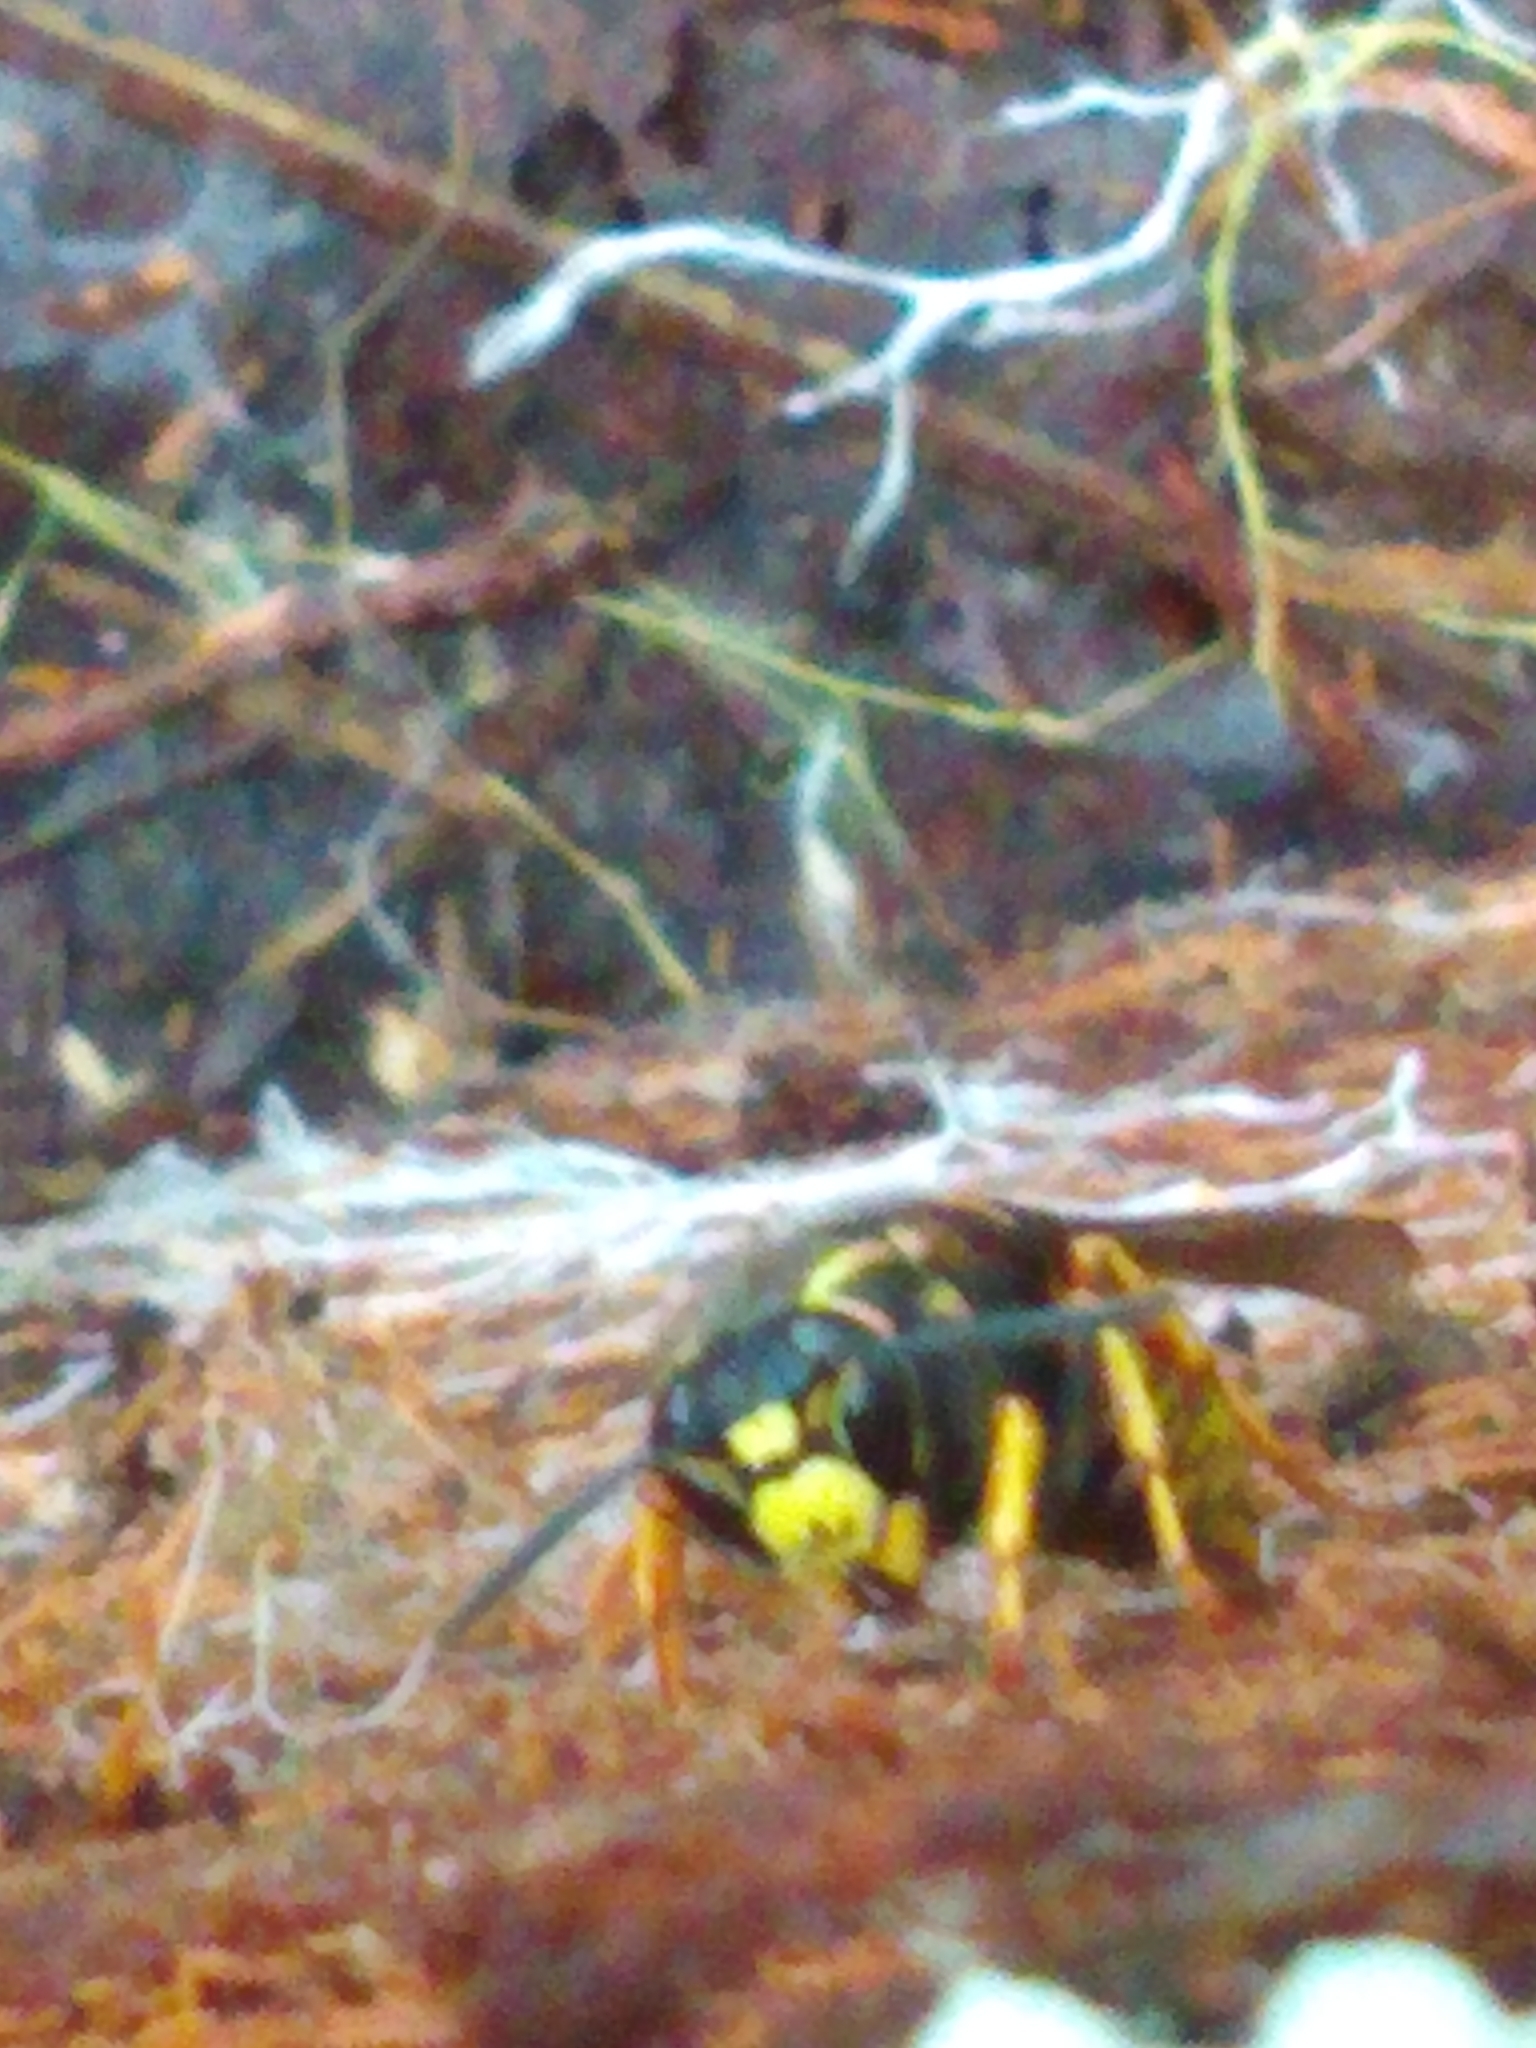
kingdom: Animalia
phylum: Arthropoda
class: Insecta
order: Hymenoptera
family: Vespidae
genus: Vespula
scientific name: Vespula vidua
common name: Widow yellowjacket
